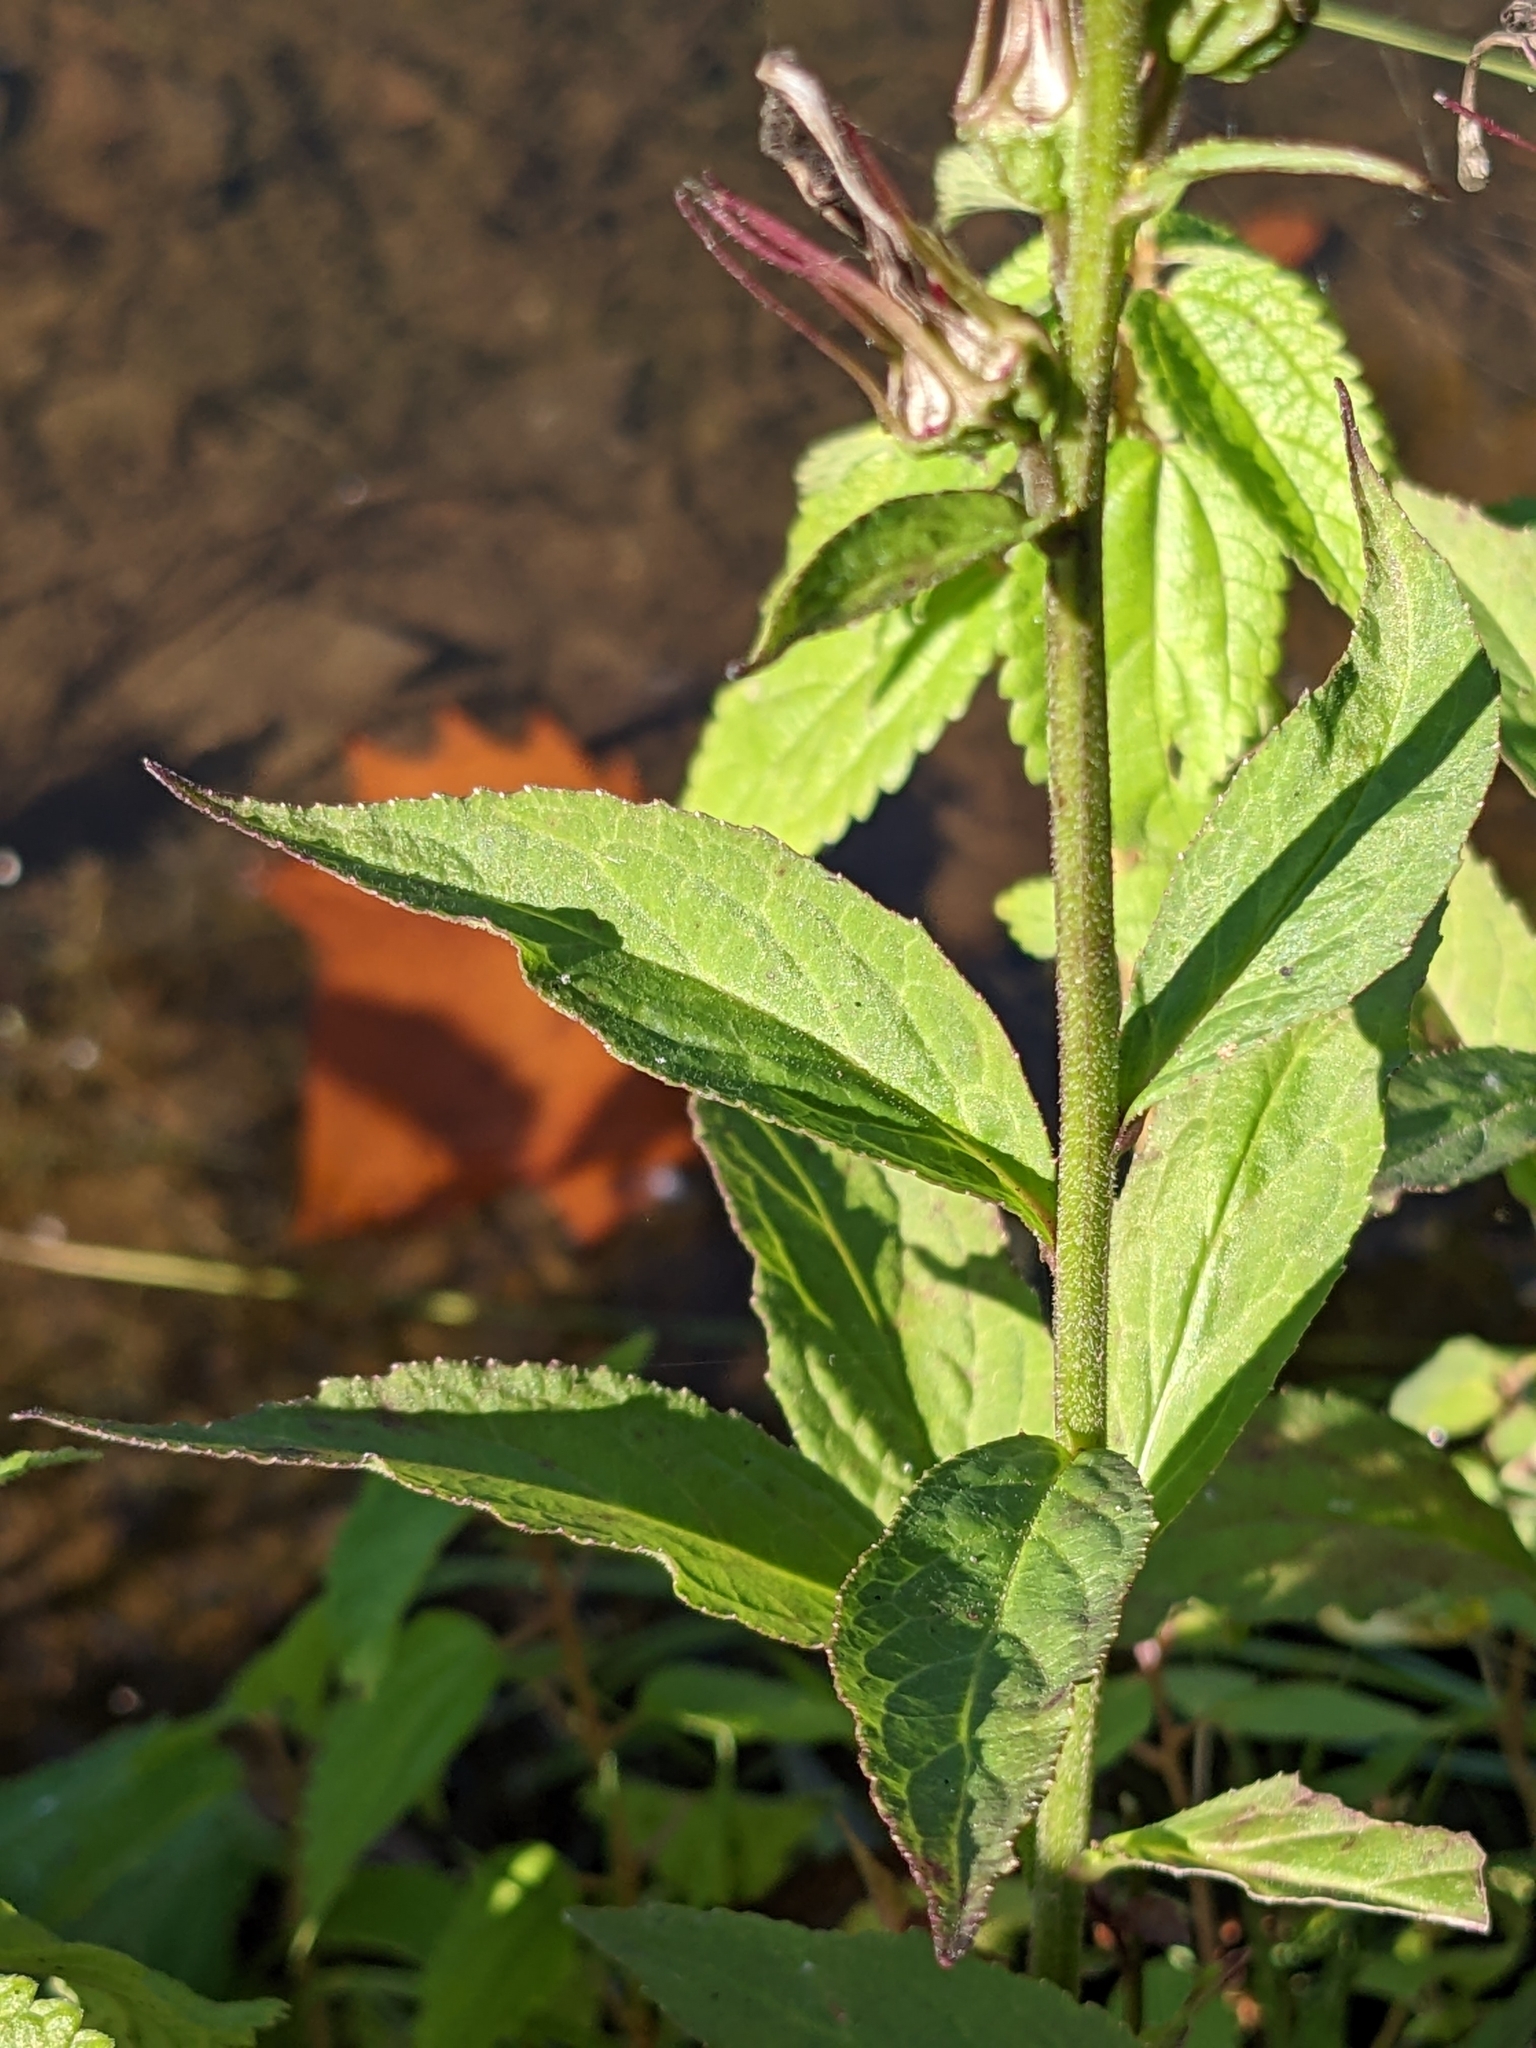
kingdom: Plantae
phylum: Tracheophyta
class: Magnoliopsida
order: Asterales
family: Campanulaceae
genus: Lobelia
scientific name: Lobelia cardinalis
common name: Cardinal flower
